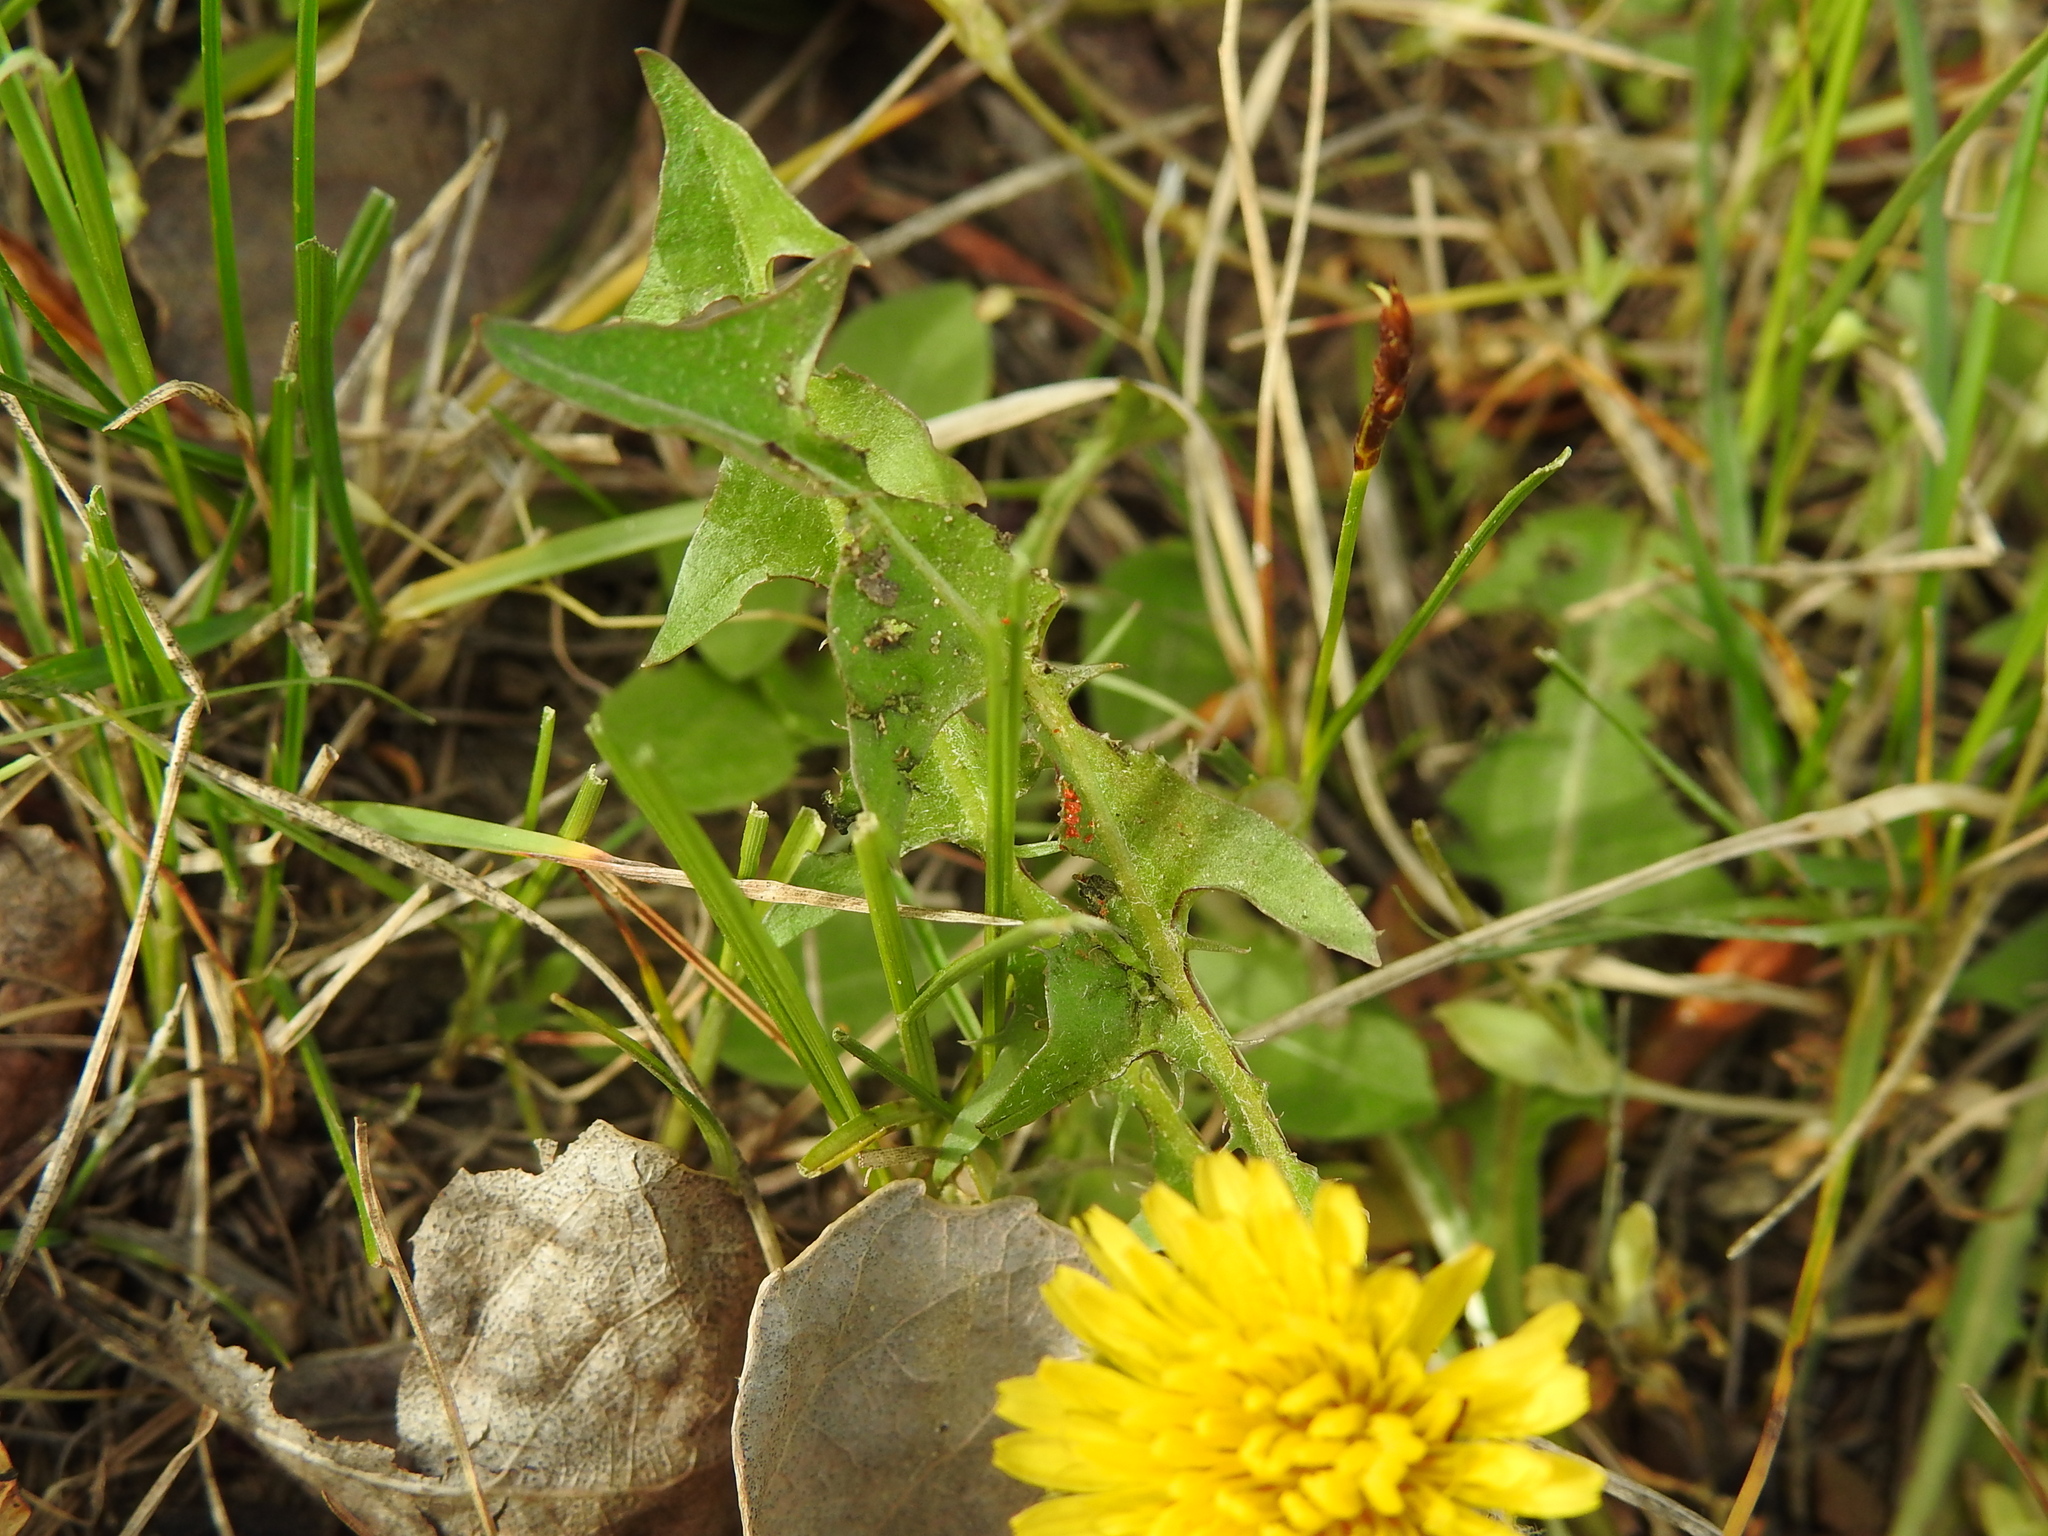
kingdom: Plantae
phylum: Tracheophyta
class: Magnoliopsida
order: Asterales
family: Asteraceae
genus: Taraxacum
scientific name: Taraxacum officinale
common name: Common dandelion
